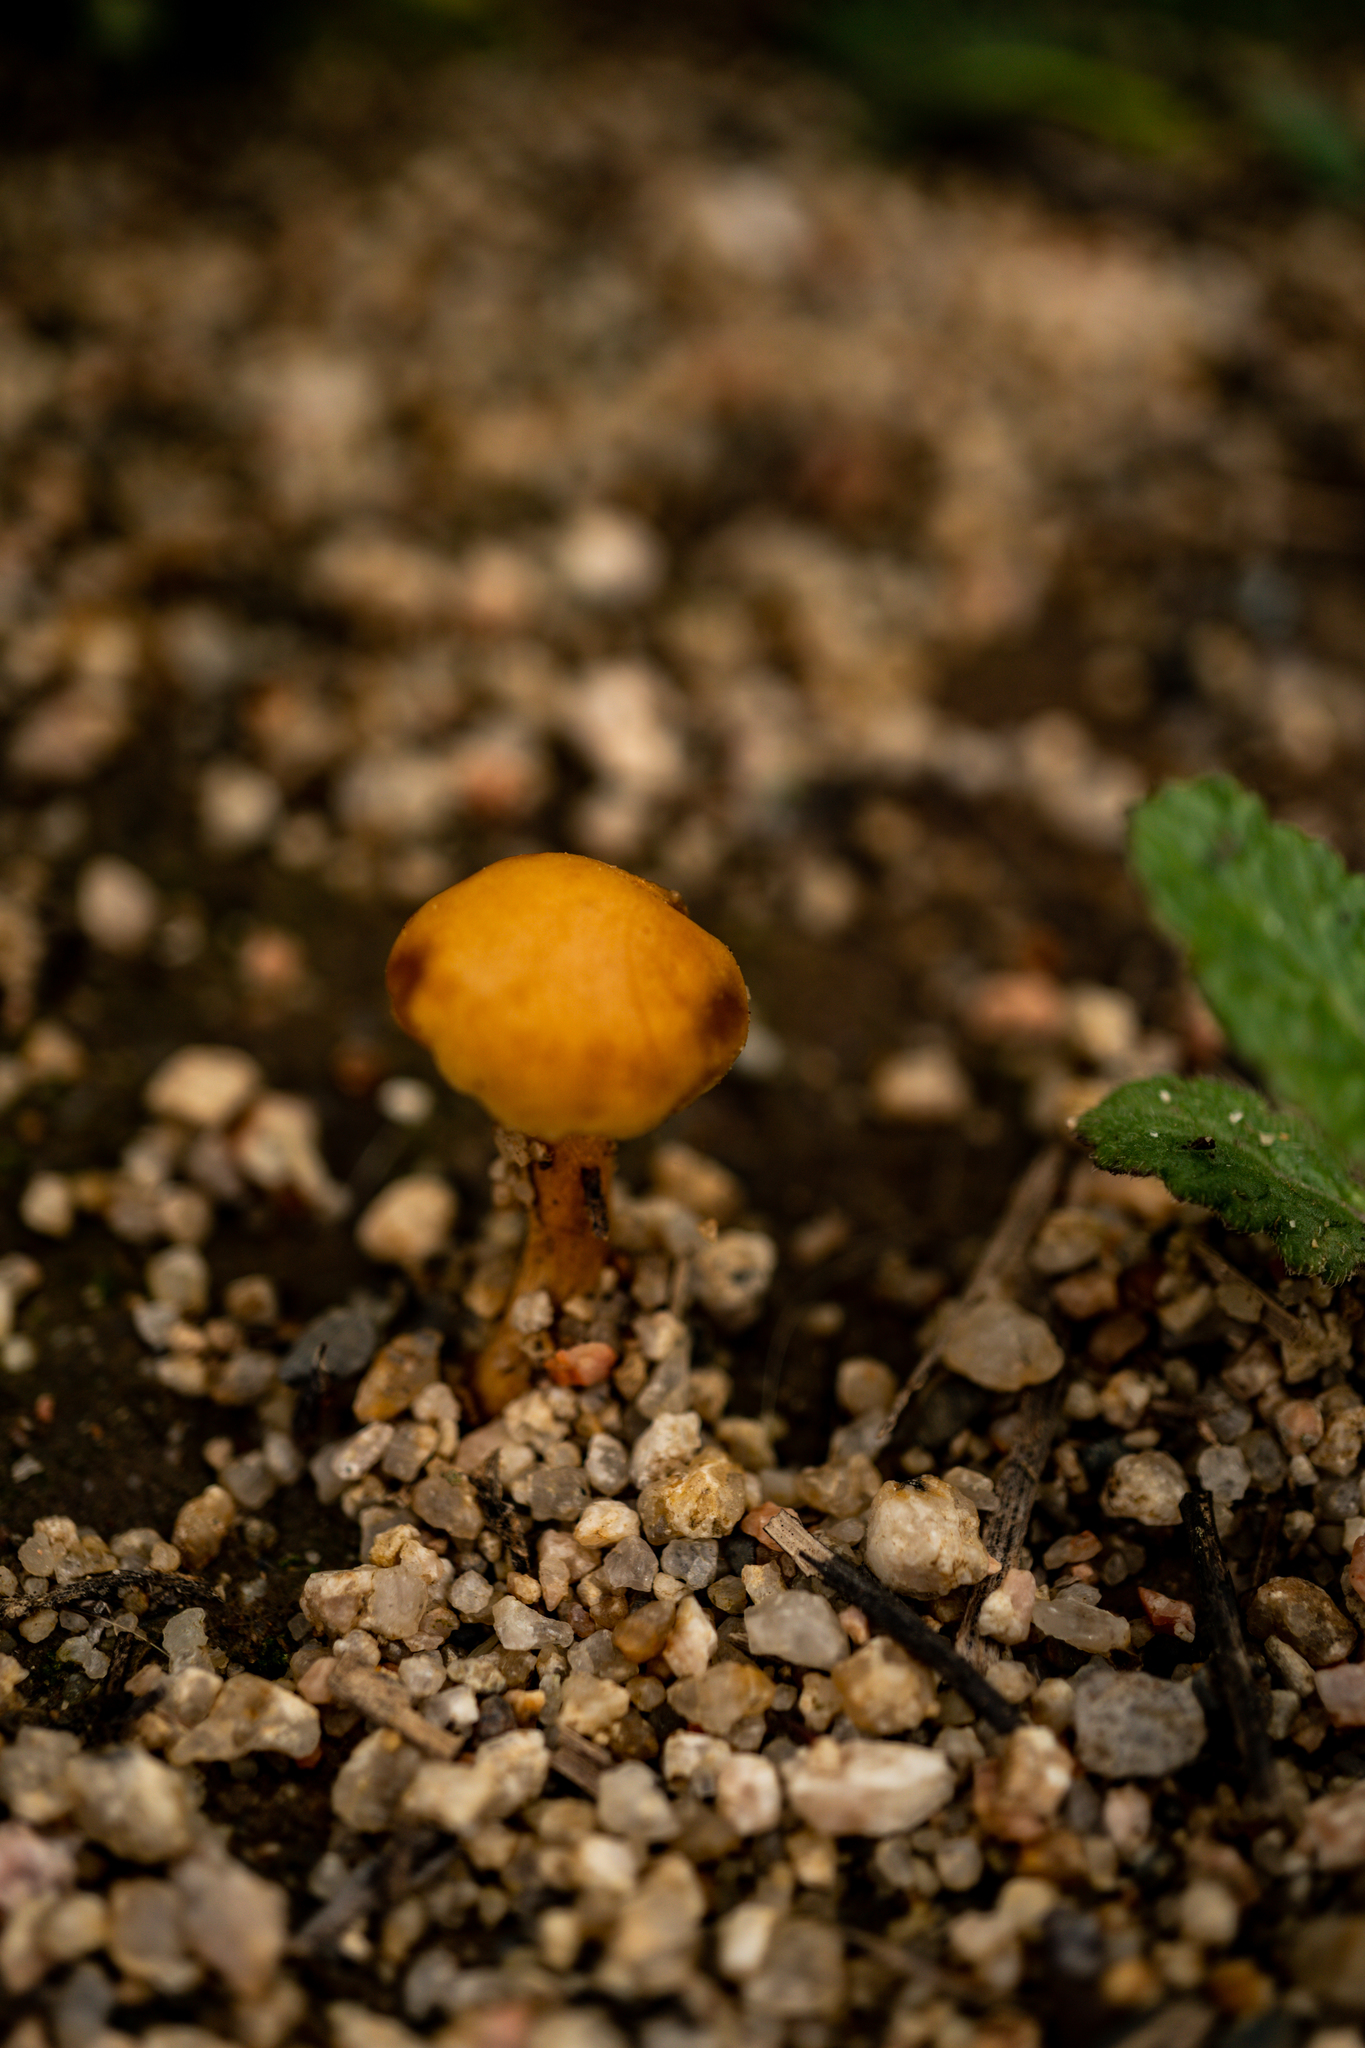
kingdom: Fungi
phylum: Basidiomycota
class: Agaricomycetes
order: Agaricales
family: Strophariaceae
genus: Agrocybe
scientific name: Agrocybe pediades
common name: Common fieldcap
